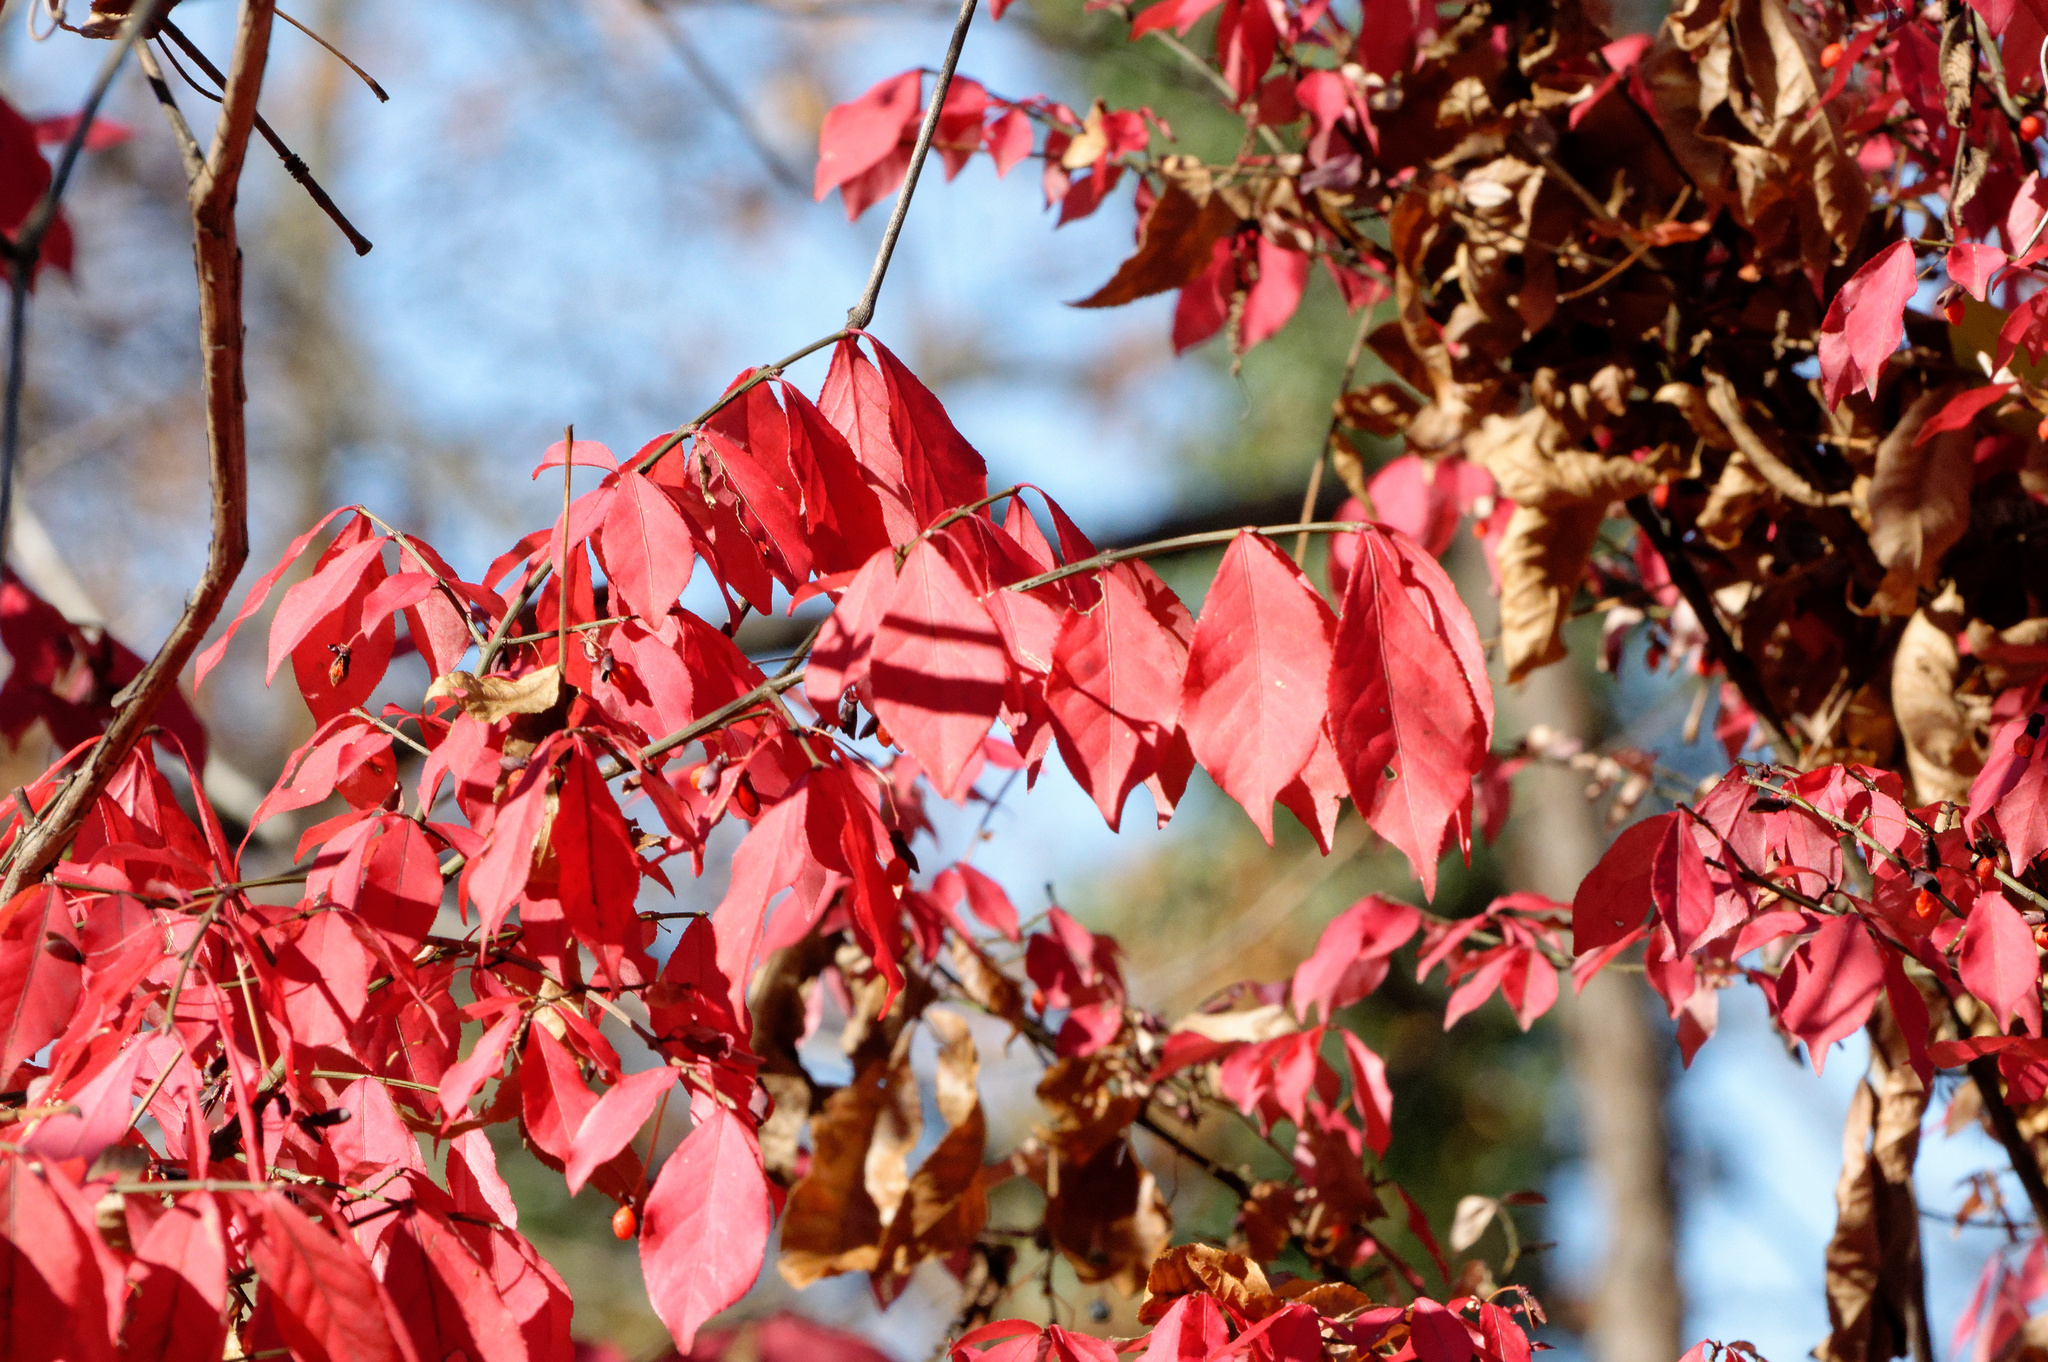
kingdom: Plantae
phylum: Tracheophyta
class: Magnoliopsida
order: Celastrales
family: Celastraceae
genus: Euonymus
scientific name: Euonymus alatus
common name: Winged euonymus
